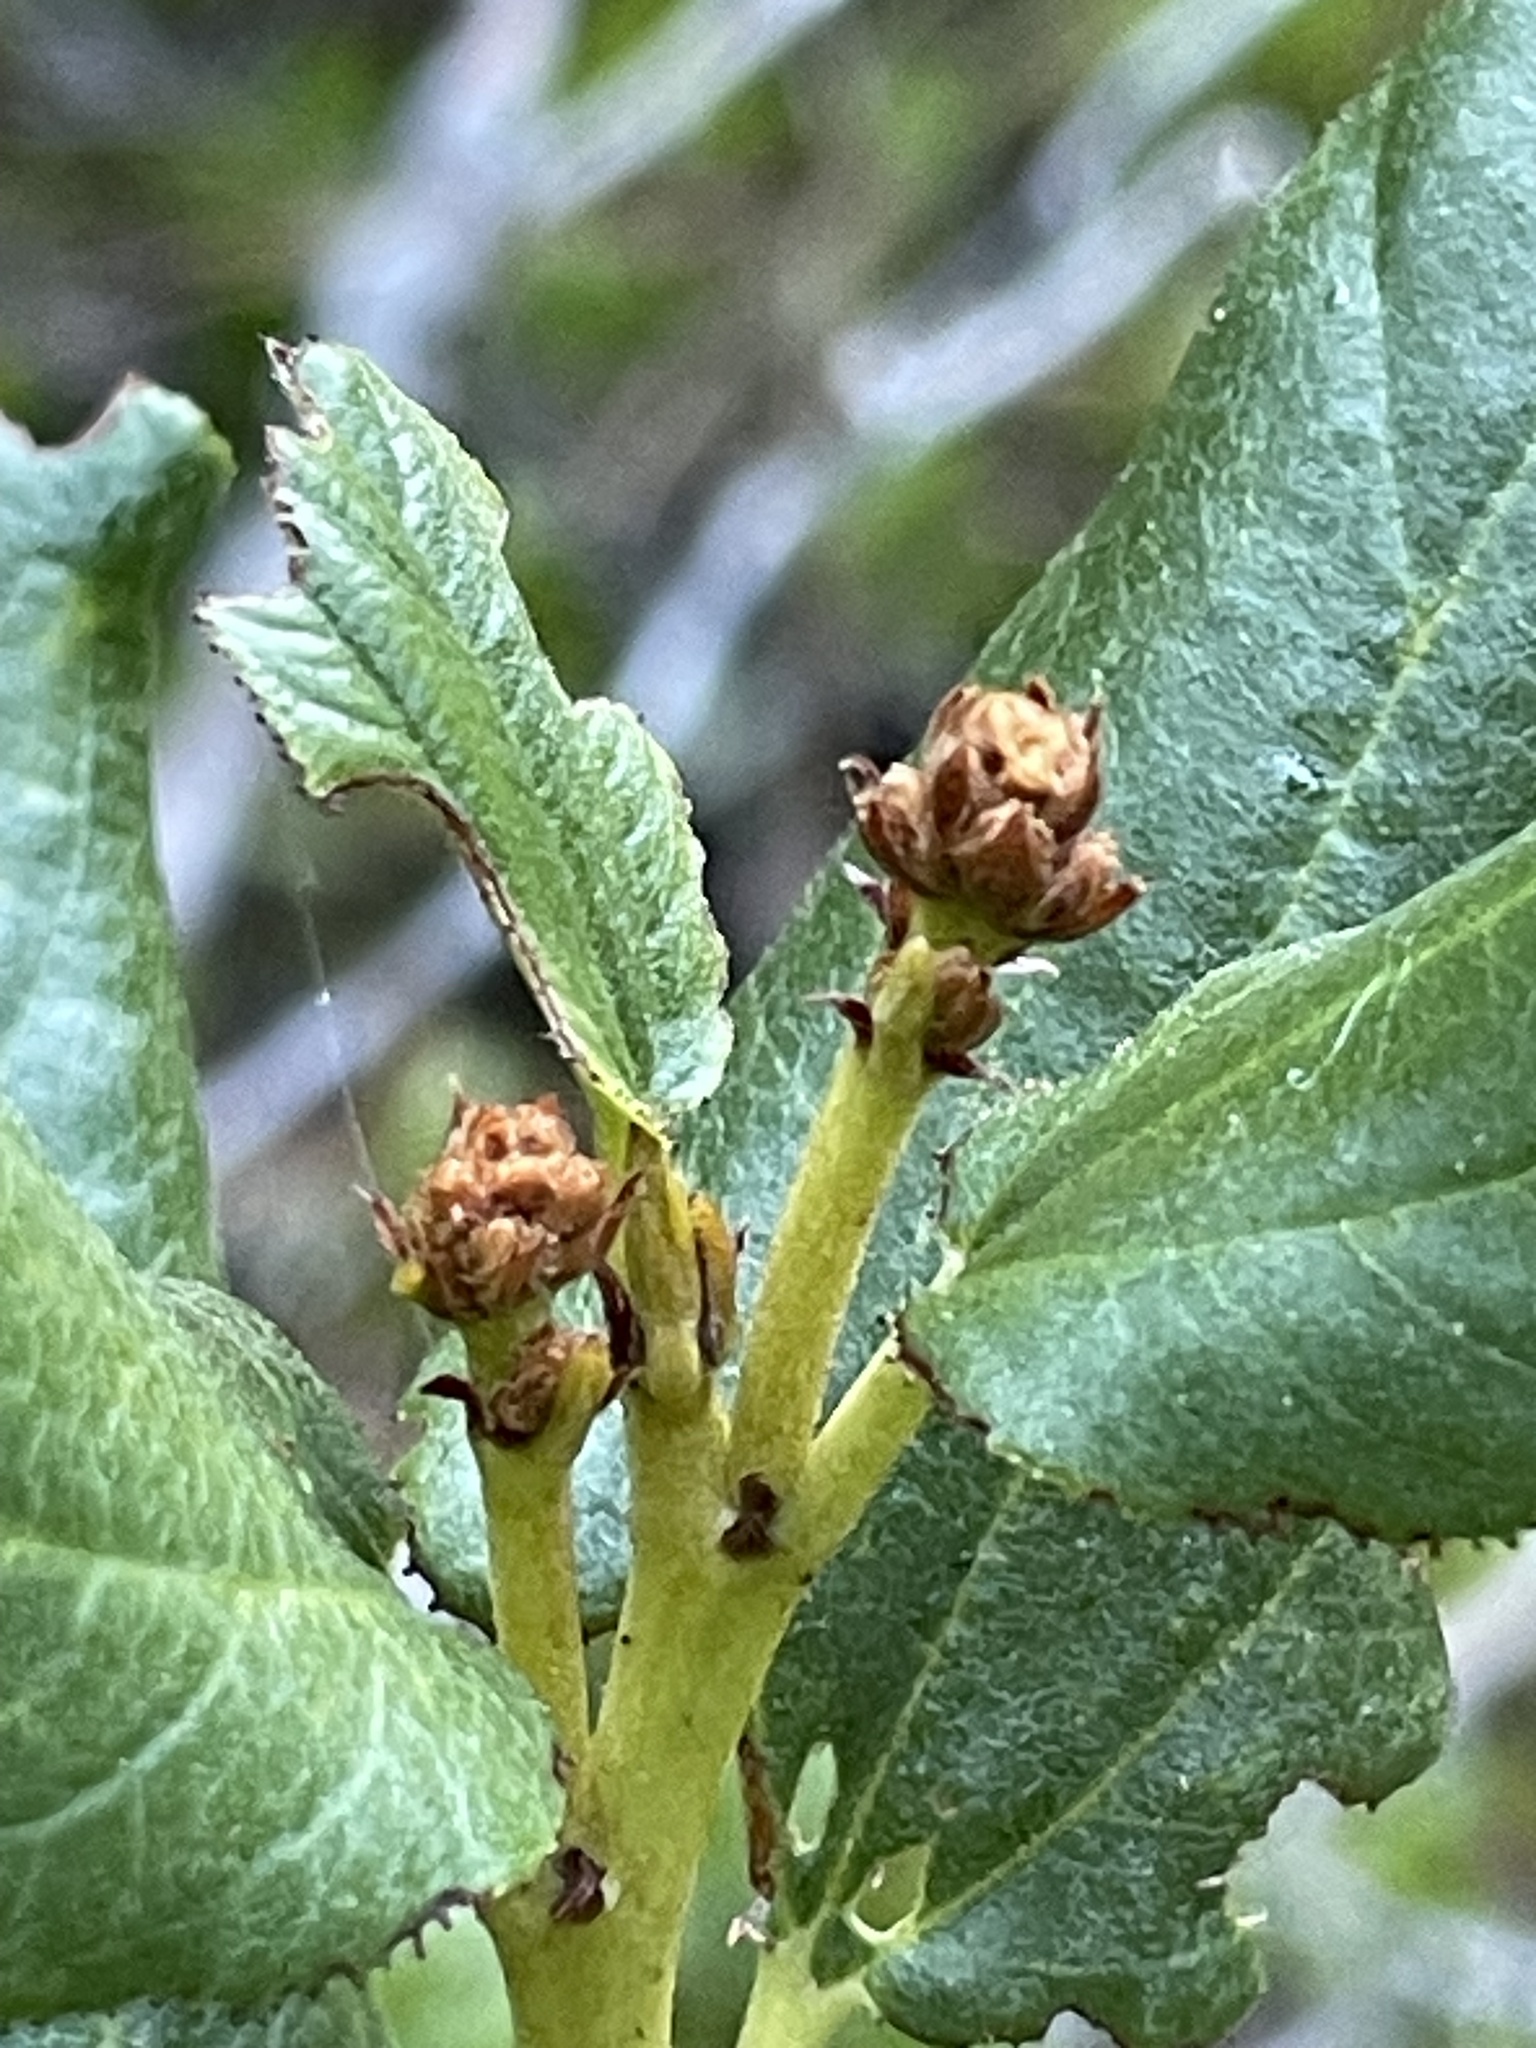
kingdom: Plantae
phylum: Tracheophyta
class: Magnoliopsida
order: Rosales
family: Rhamnaceae
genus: Ceanothus
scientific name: Ceanothus velutinus
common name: Snowbrush
